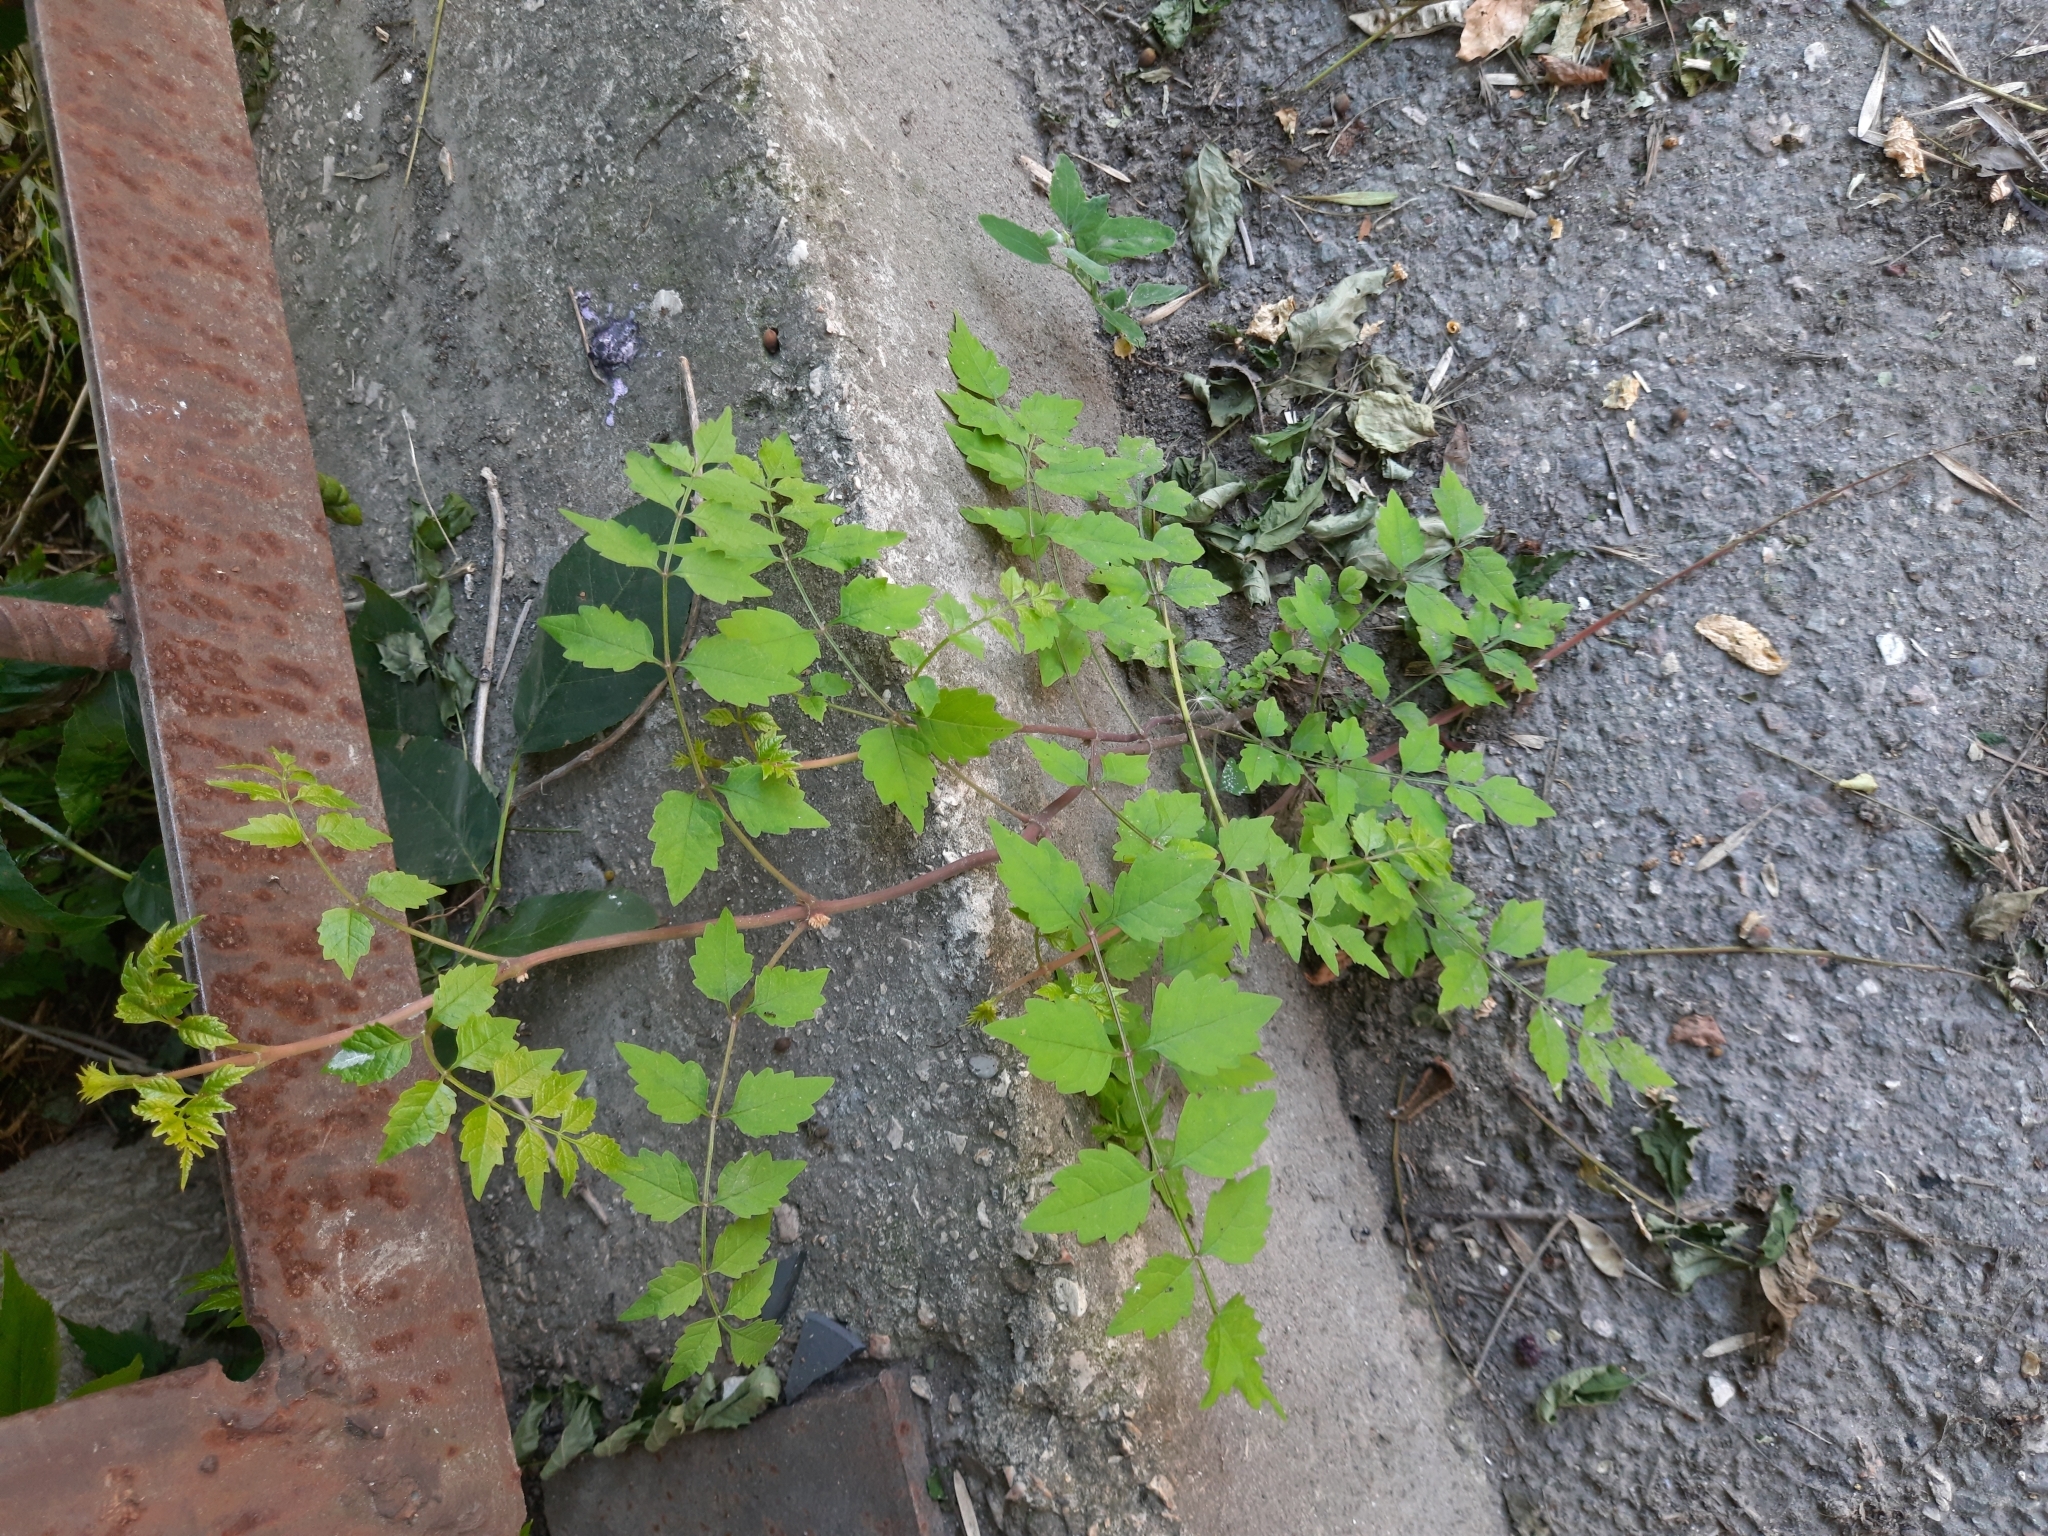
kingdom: Plantae
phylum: Tracheophyta
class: Magnoliopsida
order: Lamiales
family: Bignoniaceae
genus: Campsis
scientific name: Campsis radicans
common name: Trumpet-creeper
